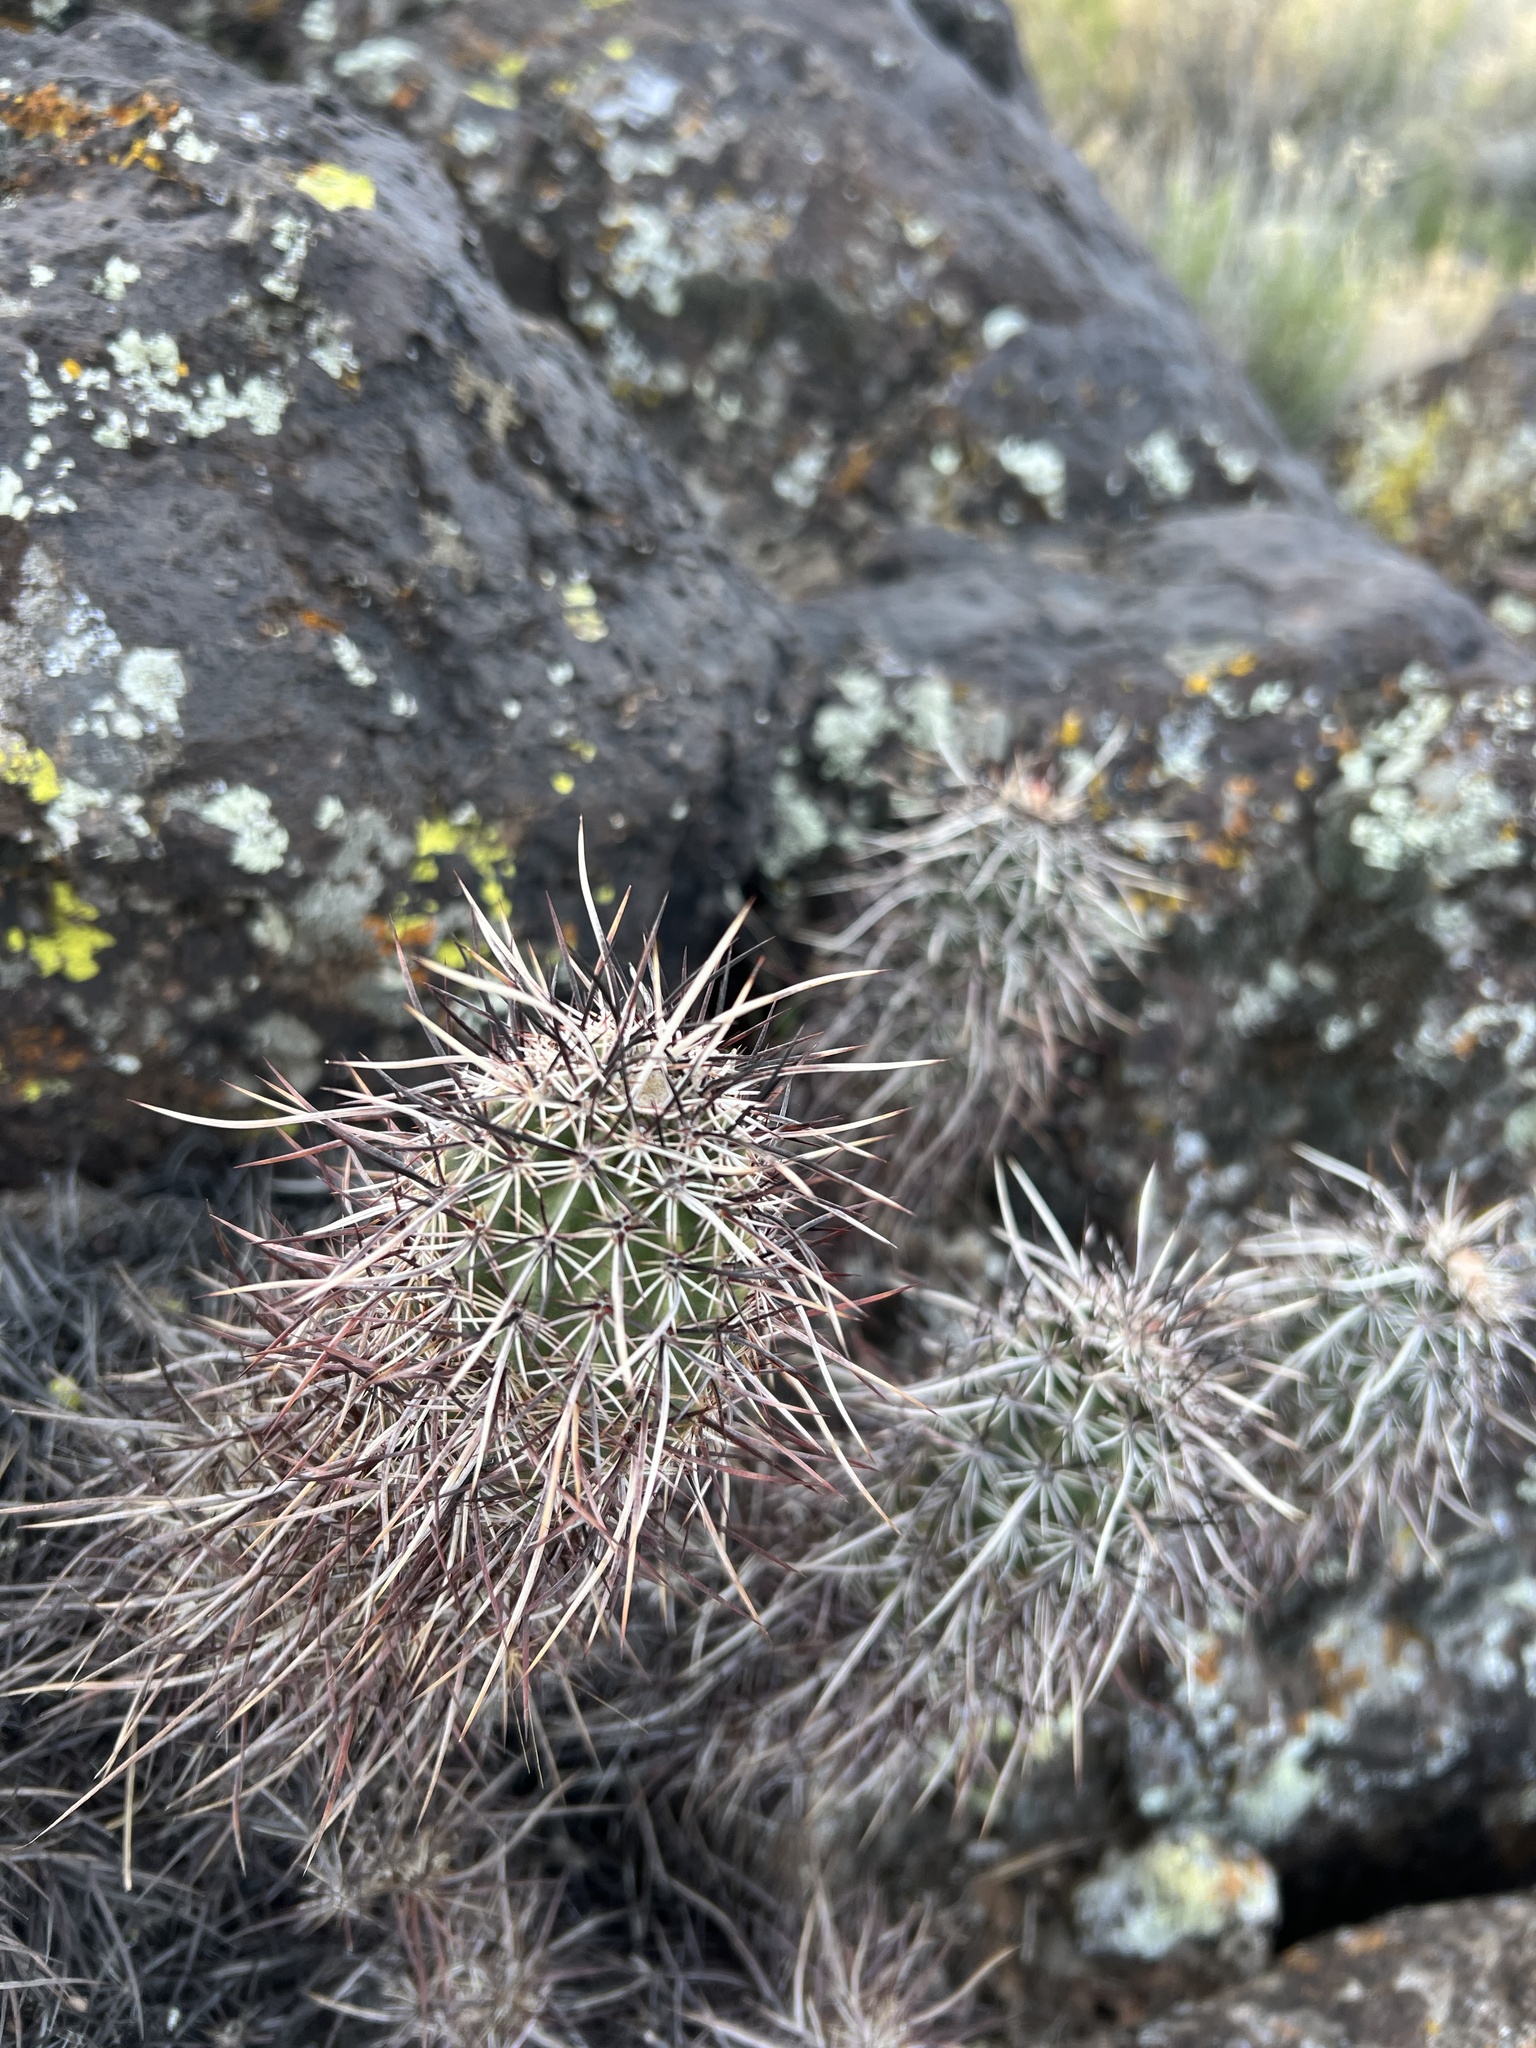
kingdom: Plantae
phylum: Tracheophyta
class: Magnoliopsida
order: Caryophyllales
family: Cactaceae
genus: Echinocereus
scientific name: Echinocereus relictus
